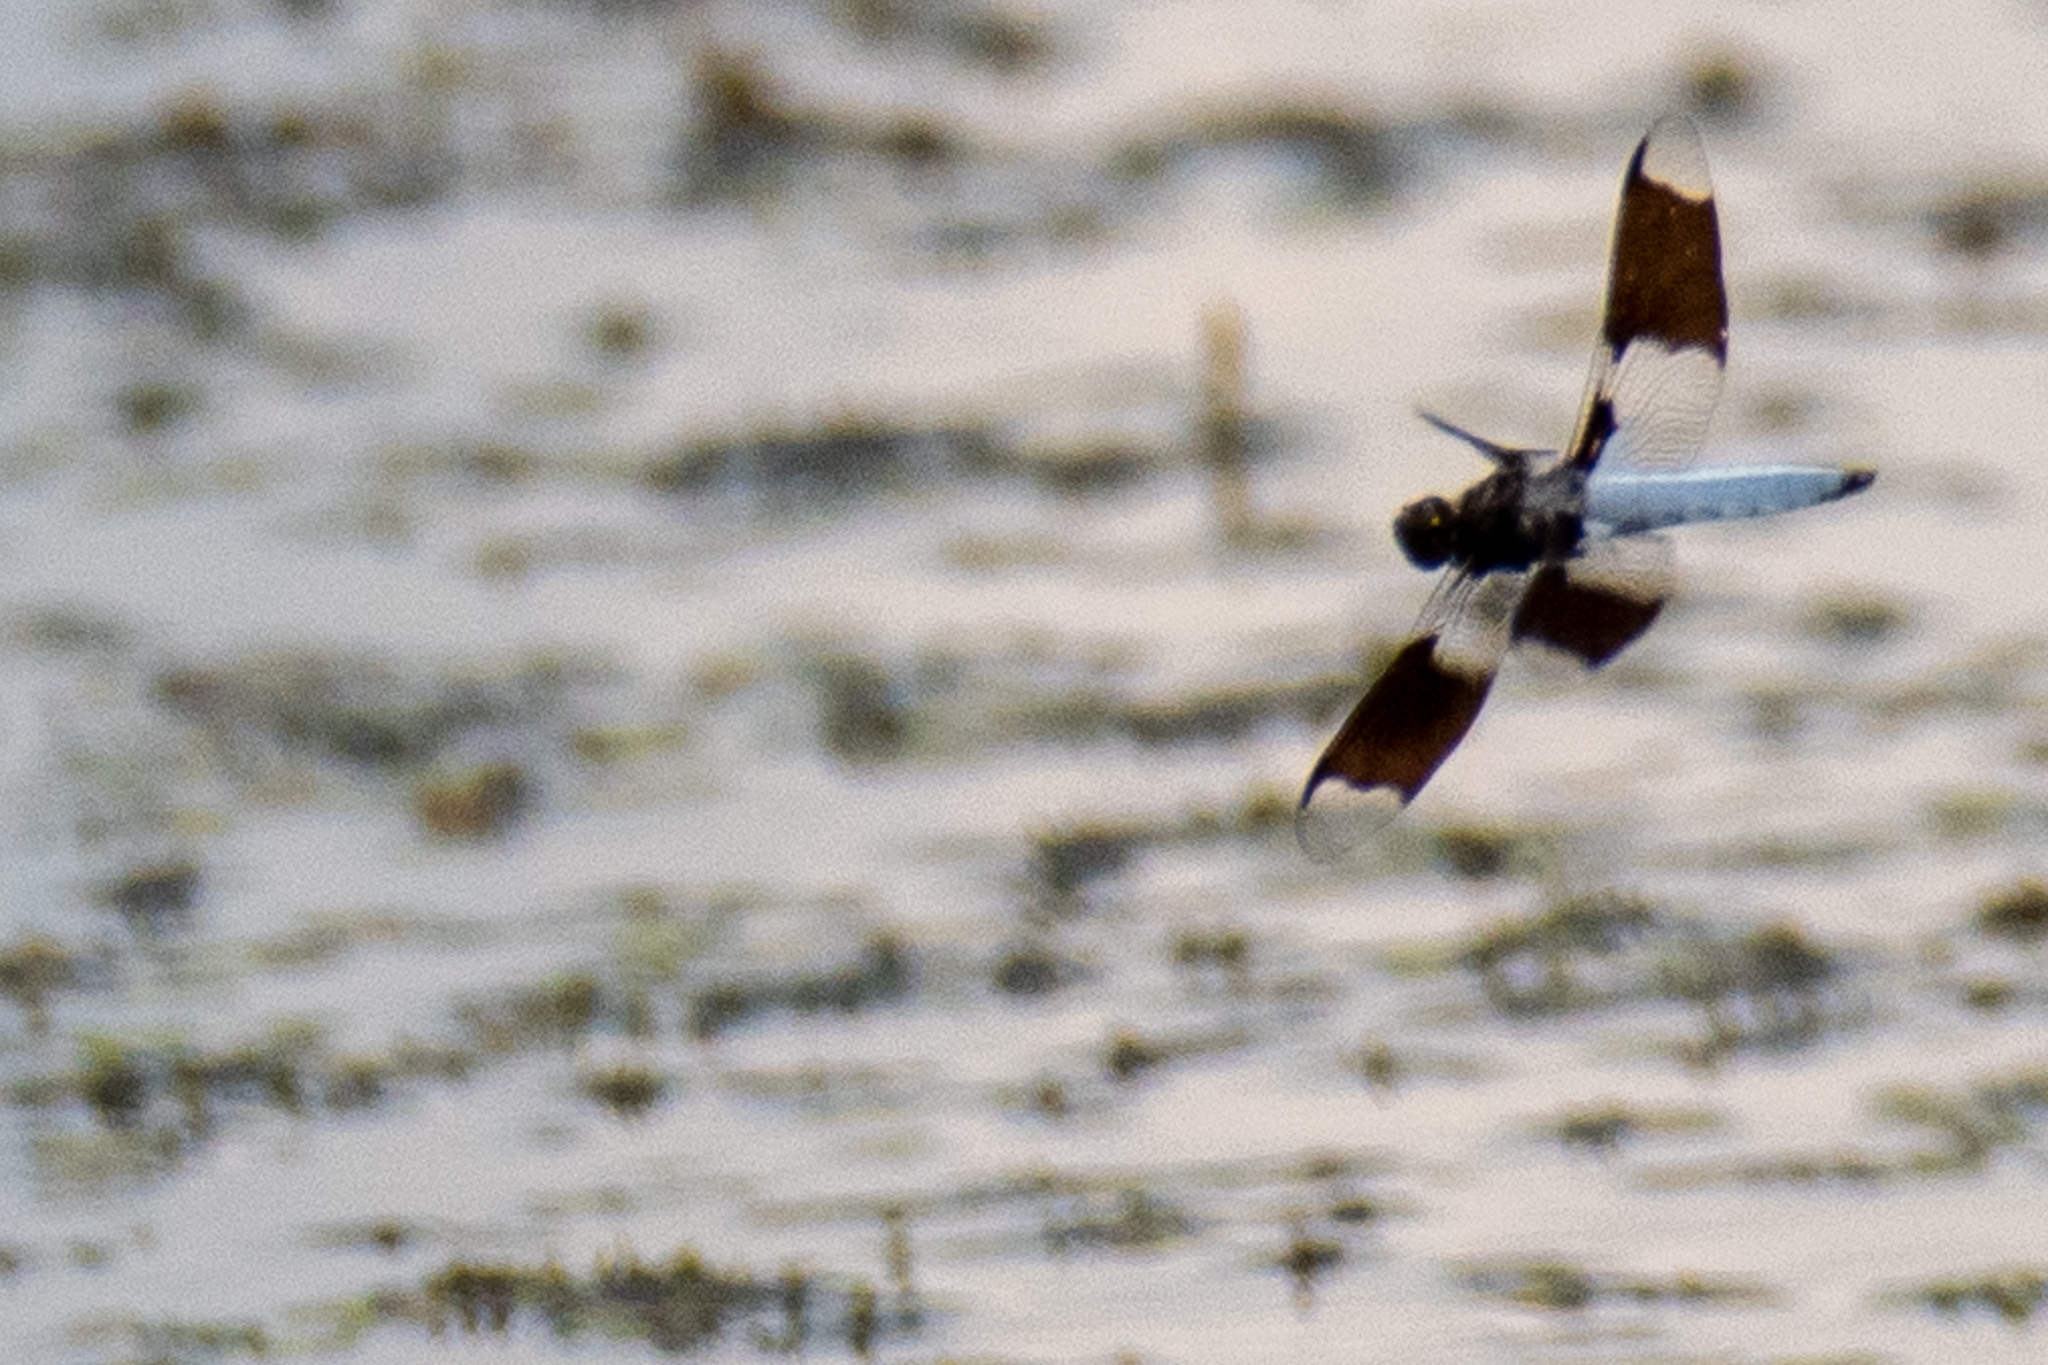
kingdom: Animalia
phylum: Arthropoda
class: Insecta
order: Odonata
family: Libellulidae
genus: Plathemis
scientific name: Plathemis lydia
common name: Common whitetail
